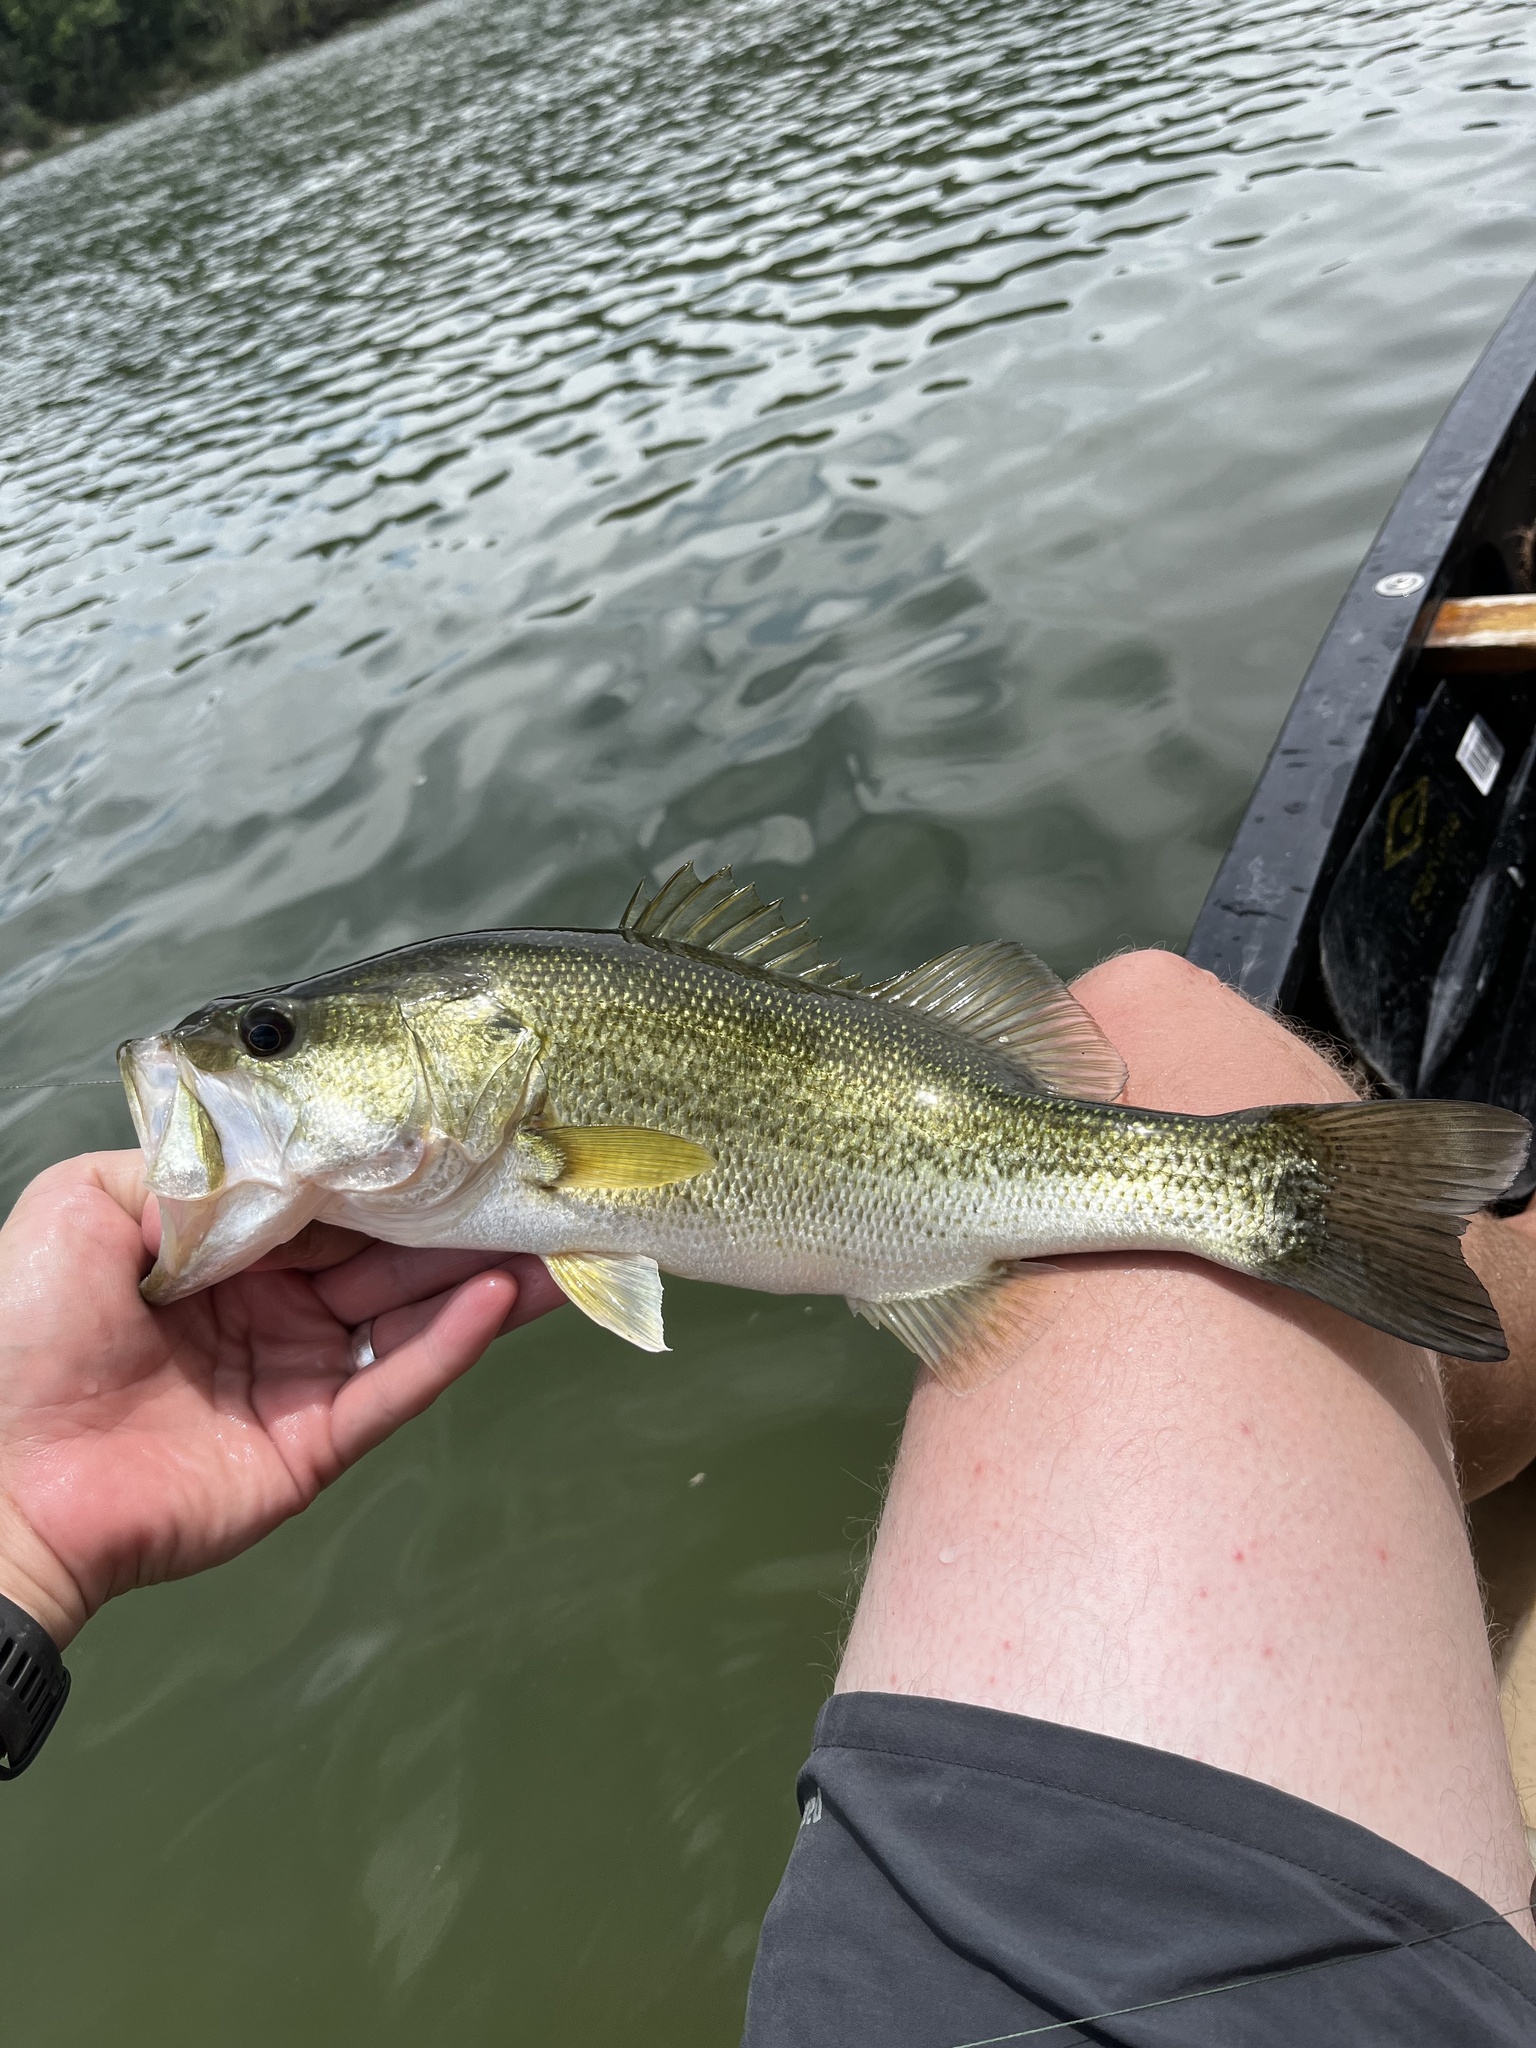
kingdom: Animalia
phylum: Chordata
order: Perciformes
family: Centrarchidae
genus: Micropterus
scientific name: Micropterus
